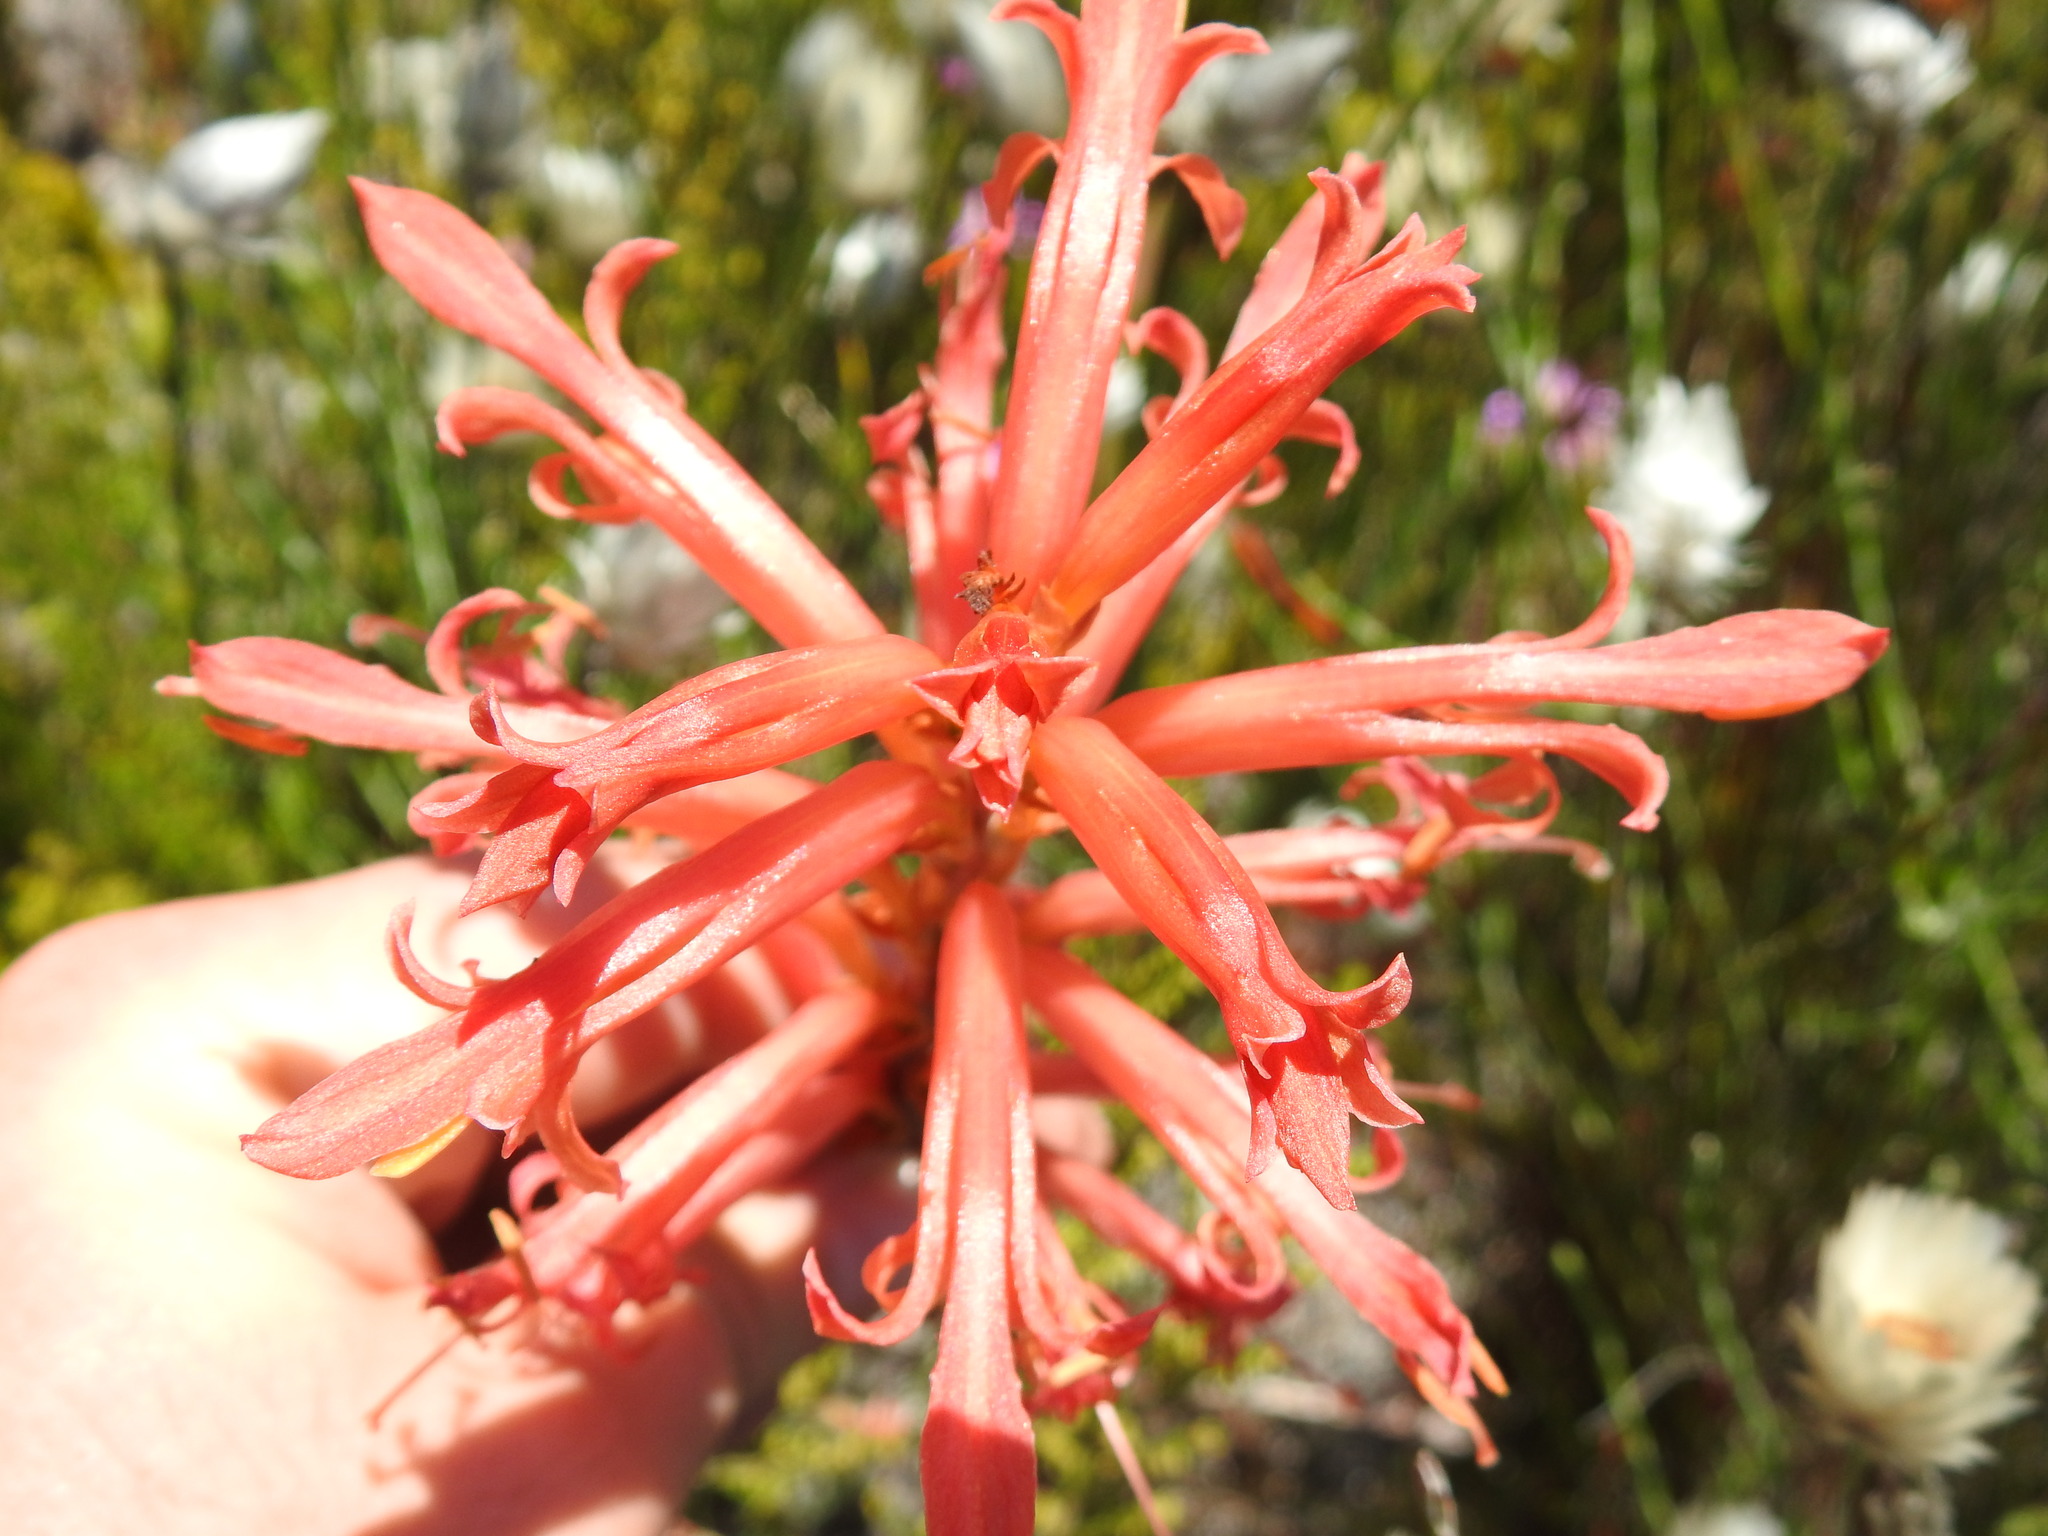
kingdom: Plantae
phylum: Tracheophyta
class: Liliopsida
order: Asparagales
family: Iridaceae
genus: Tritoniopsis
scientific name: Tritoniopsis antholyza
